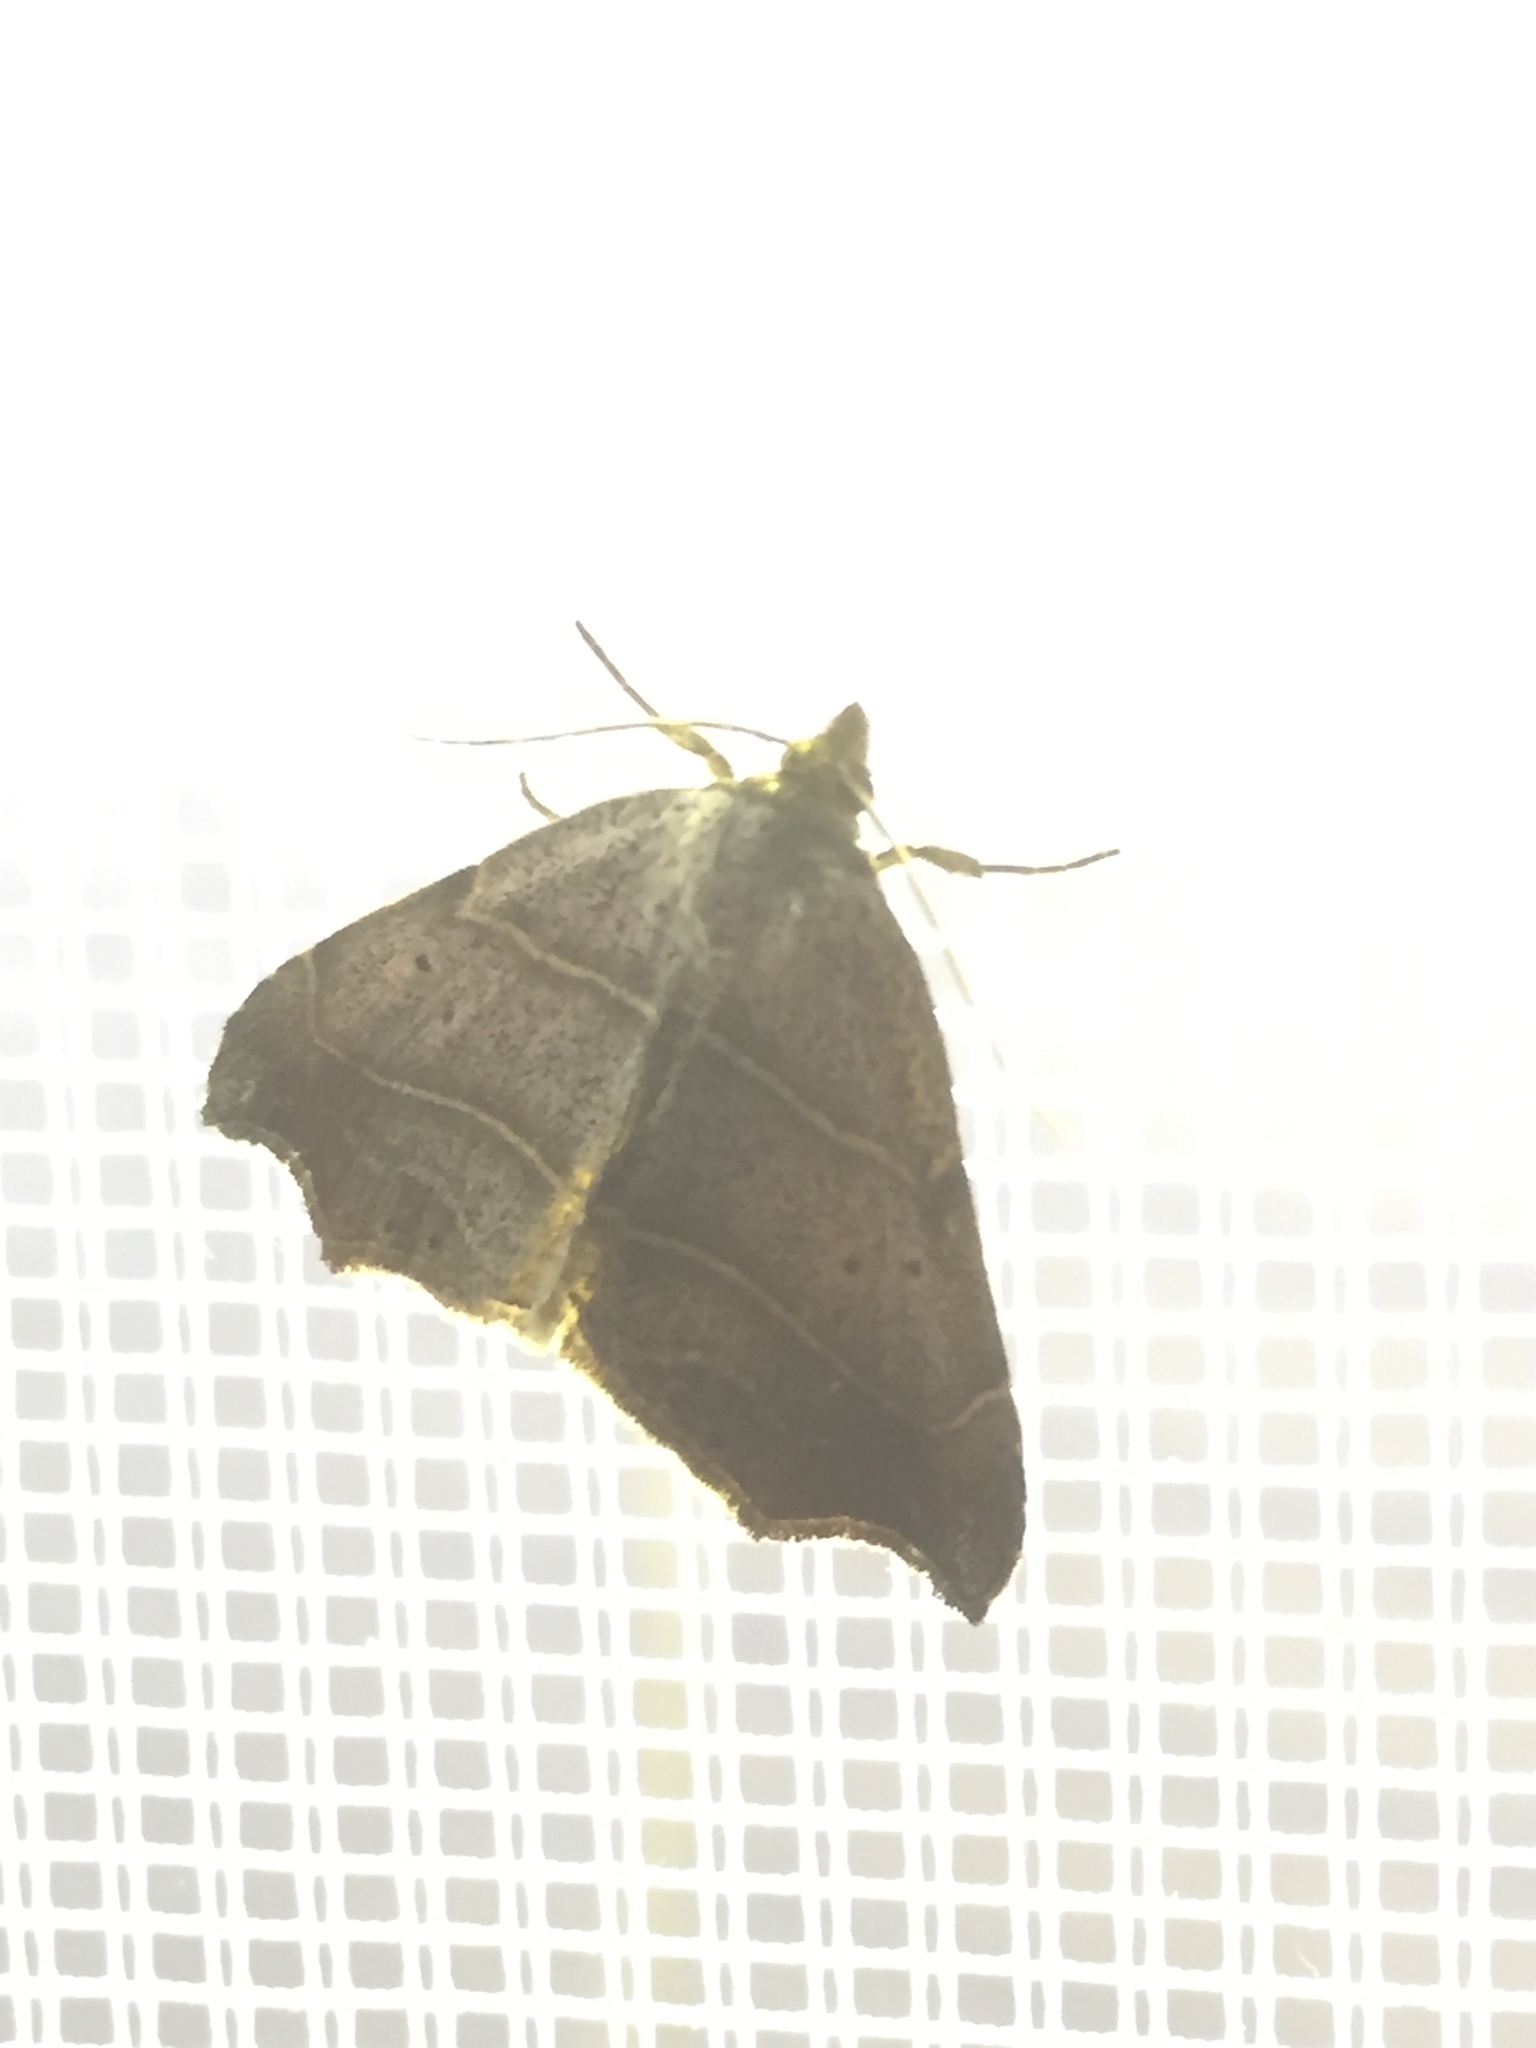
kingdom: Animalia
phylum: Arthropoda
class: Insecta
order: Lepidoptera
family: Erebidae
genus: Laspeyria
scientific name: Laspeyria flexula
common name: Beautiful hook-tip
